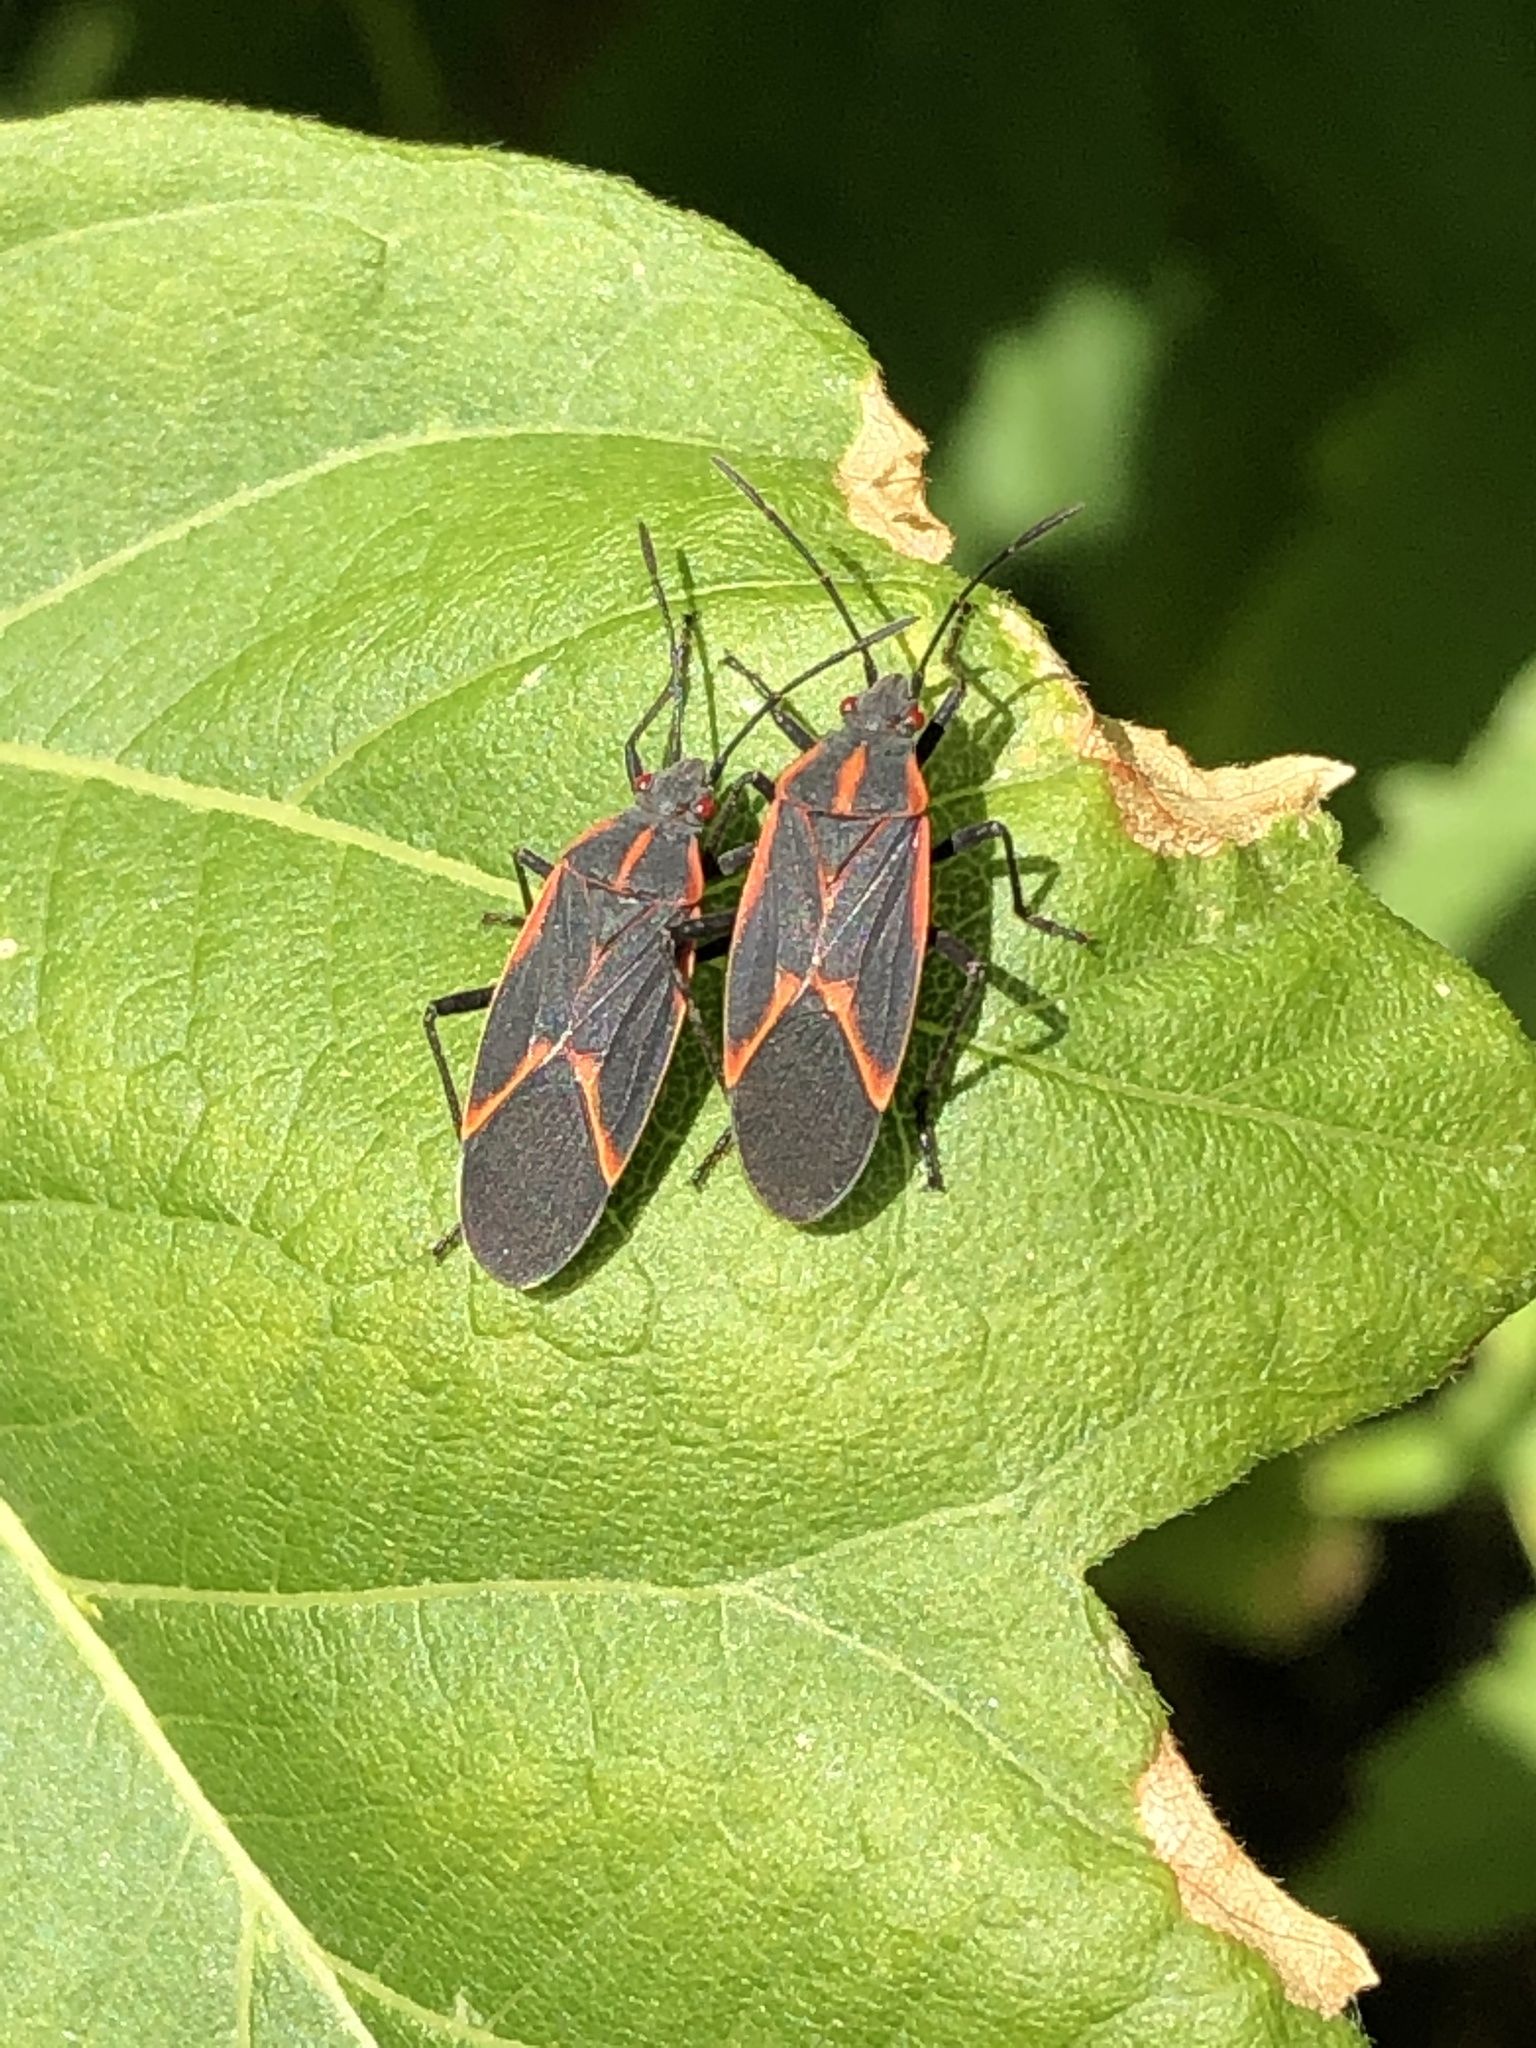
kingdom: Animalia
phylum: Arthropoda
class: Insecta
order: Hemiptera
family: Rhopalidae
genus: Boisea
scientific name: Boisea trivittata
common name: Boxelder bug
